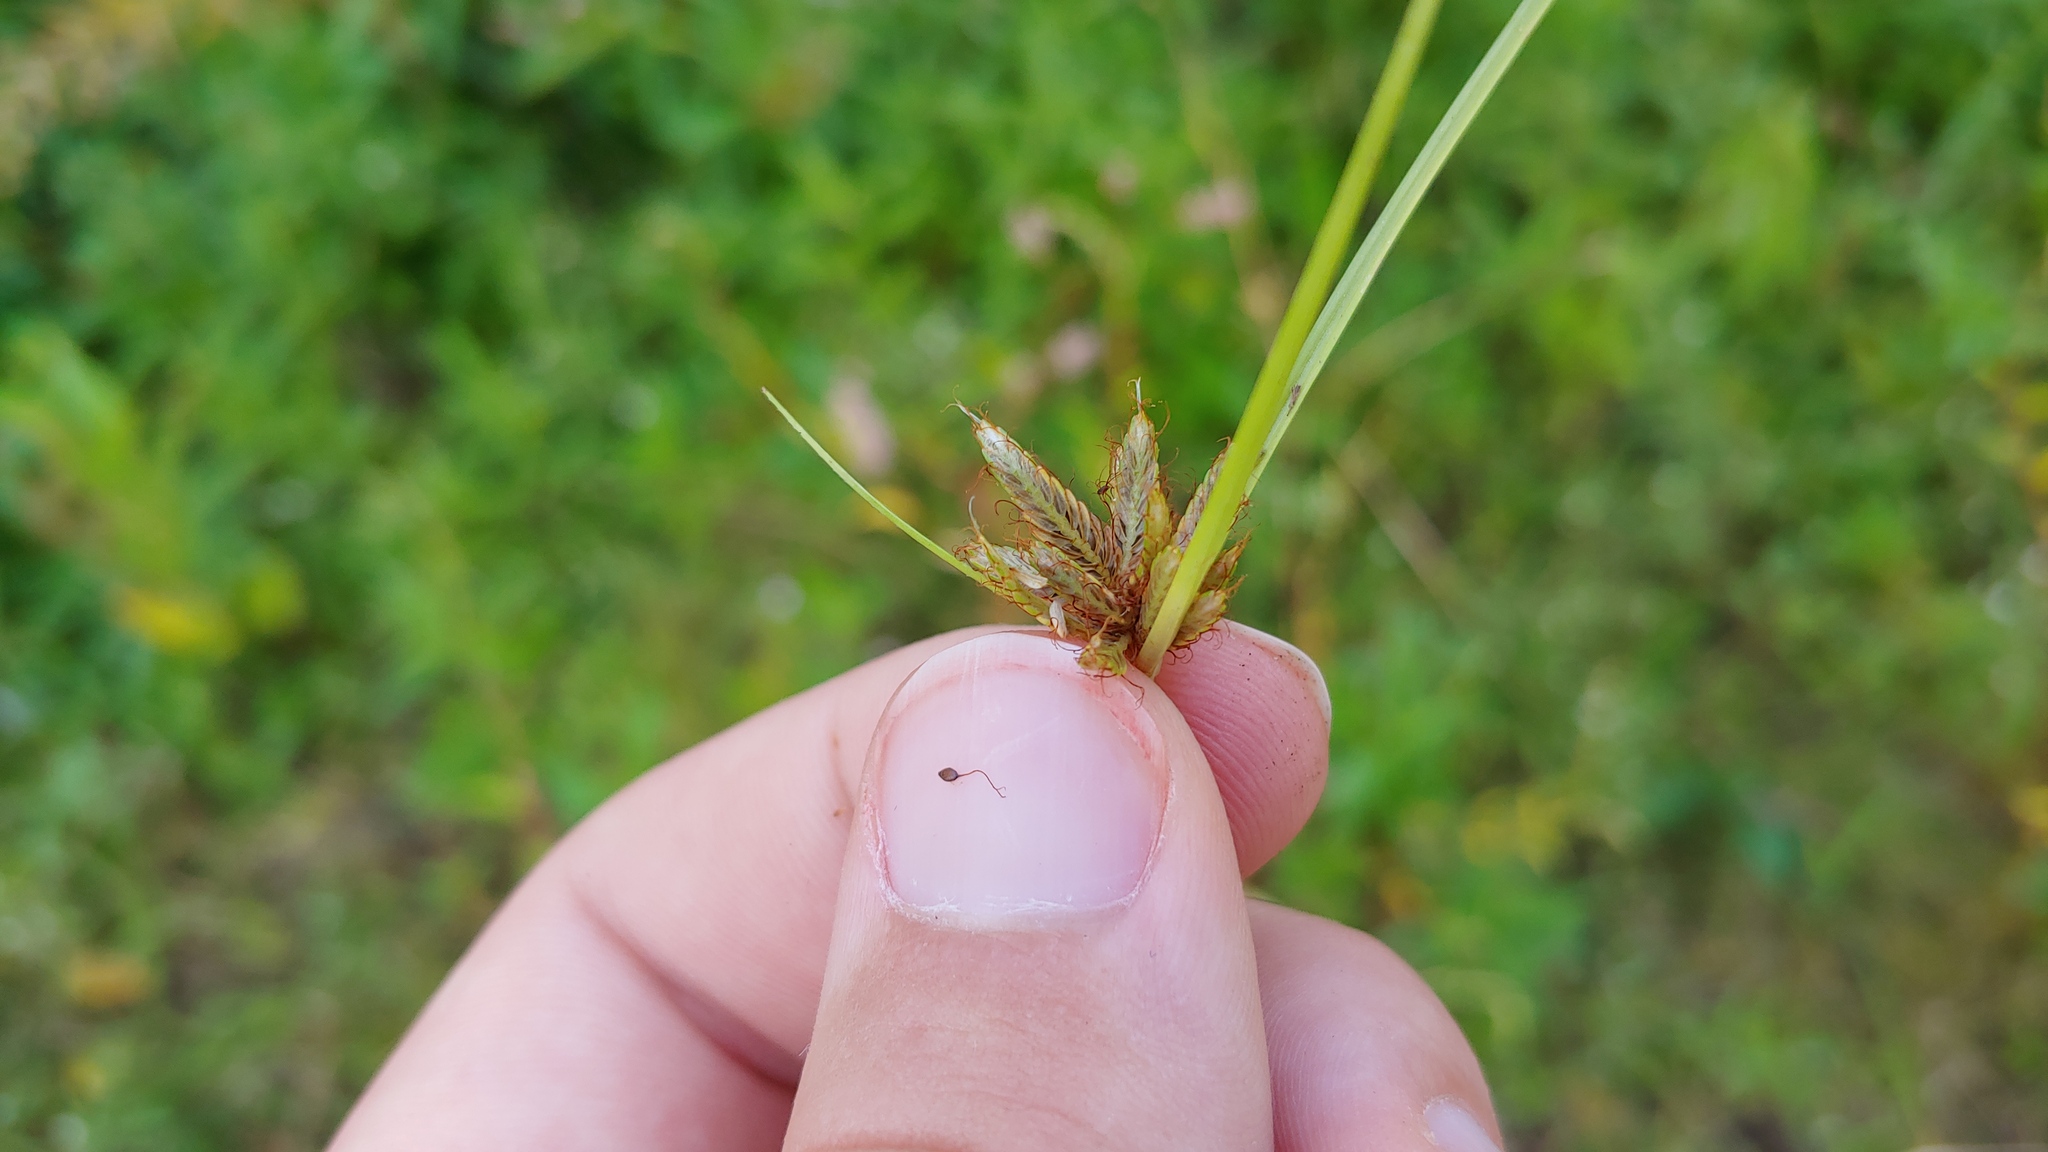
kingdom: Plantae
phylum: Tracheophyta
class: Liliopsida
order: Poales
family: Cyperaceae
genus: Cyperus
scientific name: Cyperus bipartitus
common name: Brook flatsedge
